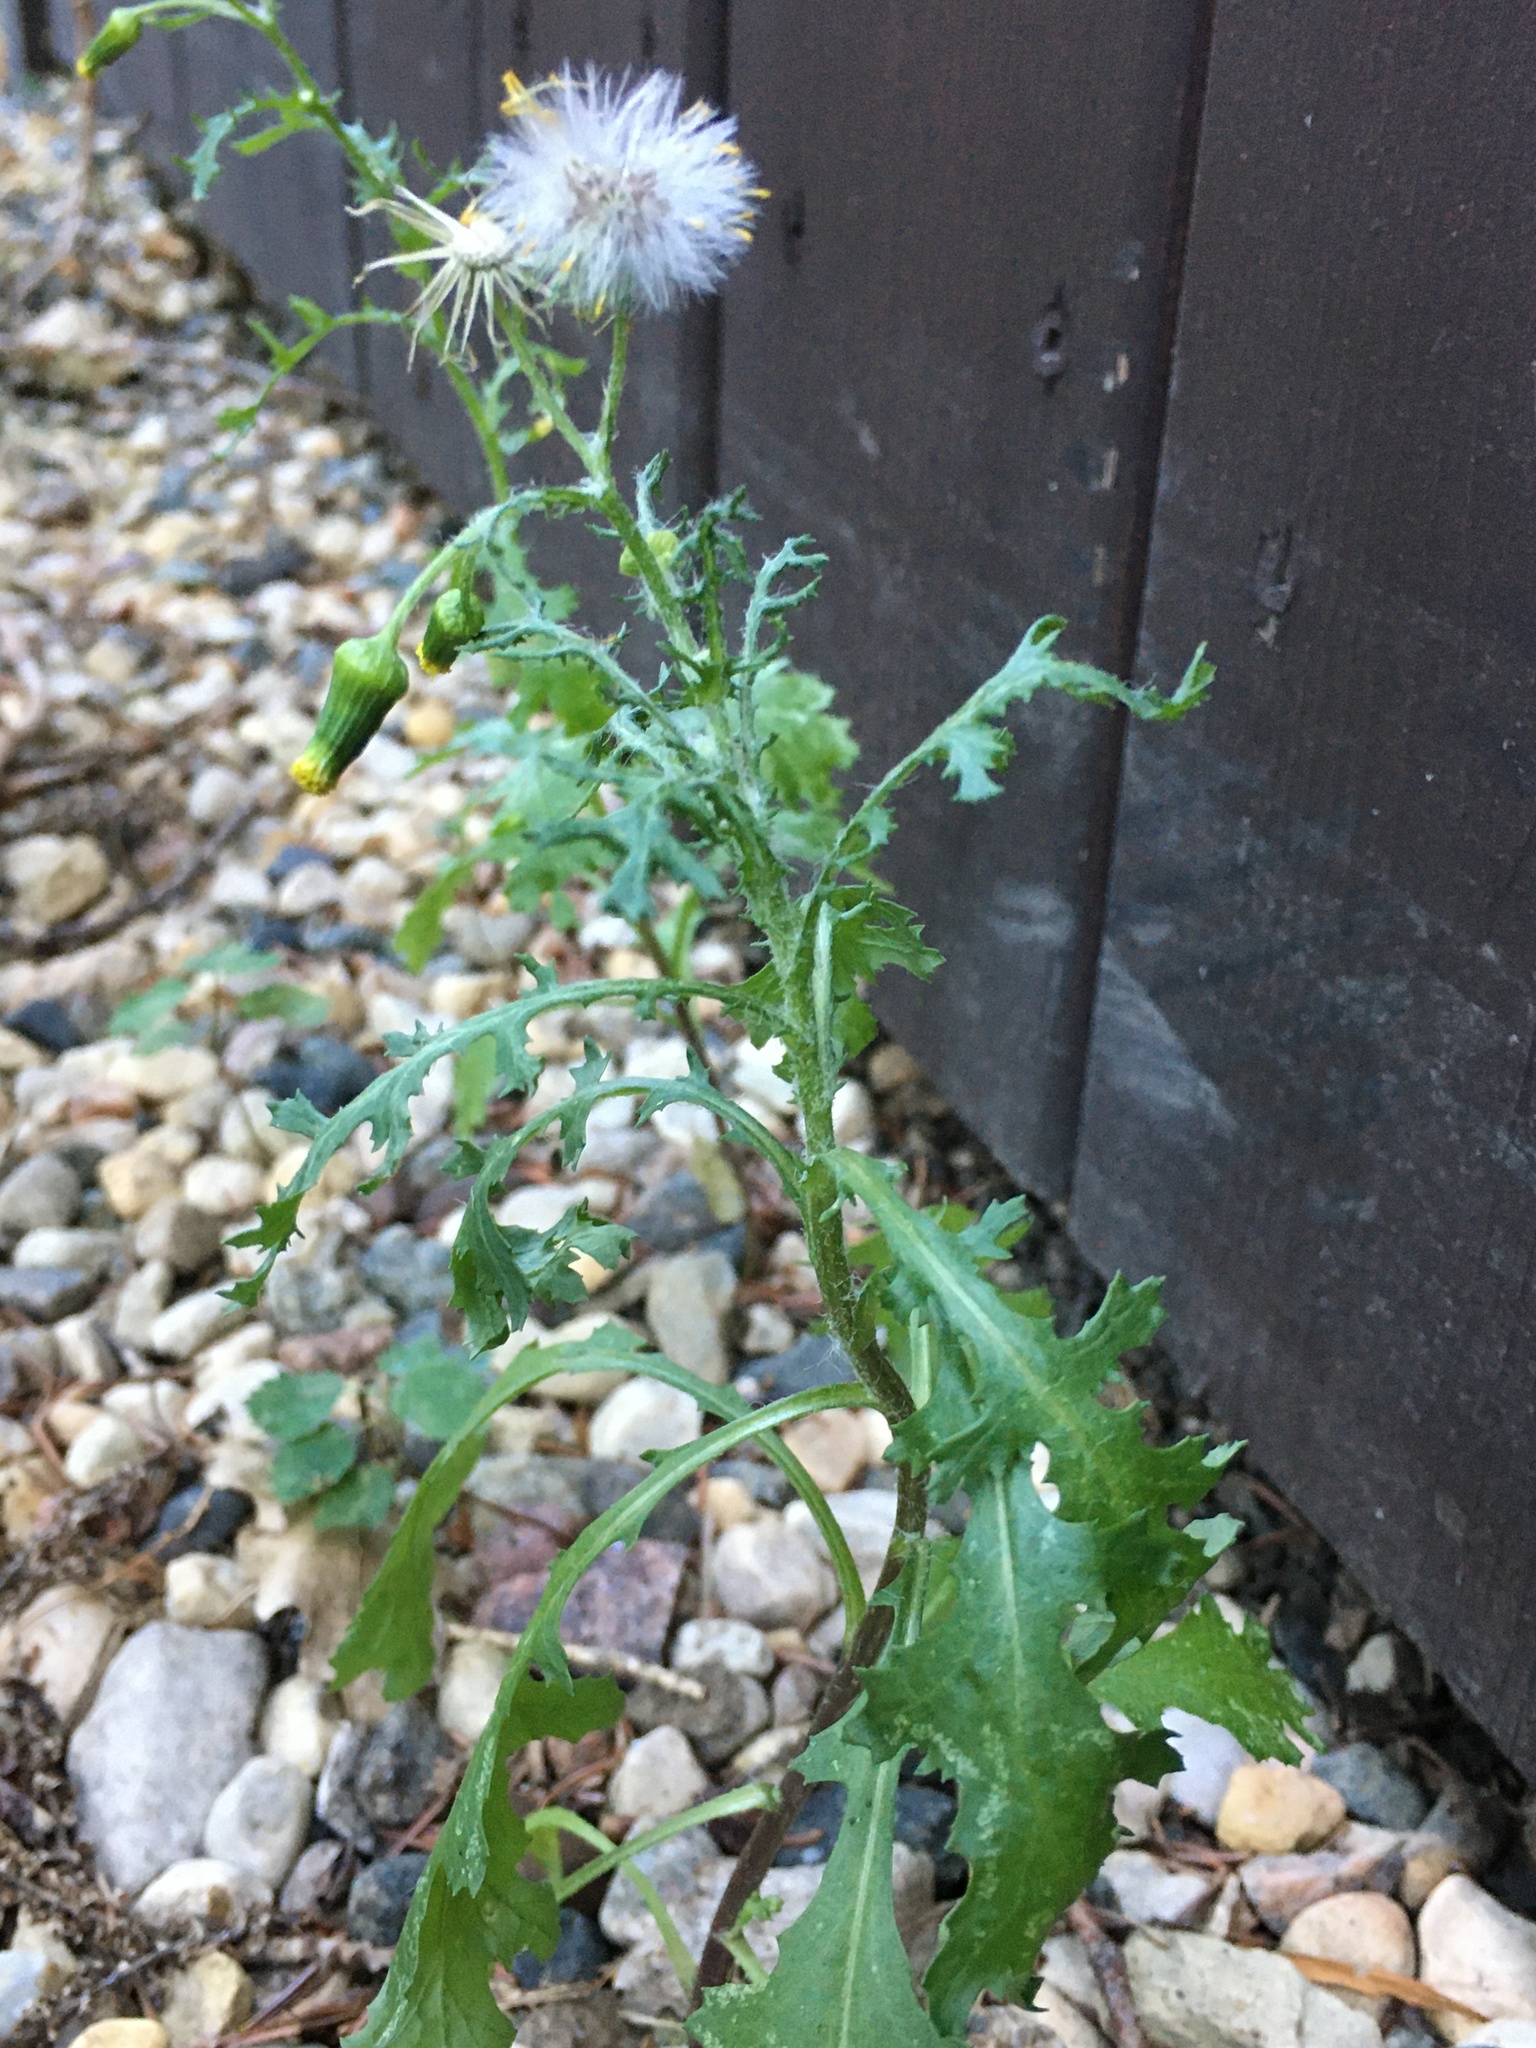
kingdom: Plantae
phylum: Tracheophyta
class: Magnoliopsida
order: Asterales
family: Asteraceae
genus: Senecio
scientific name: Senecio vulgaris
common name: Old-man-in-the-spring
